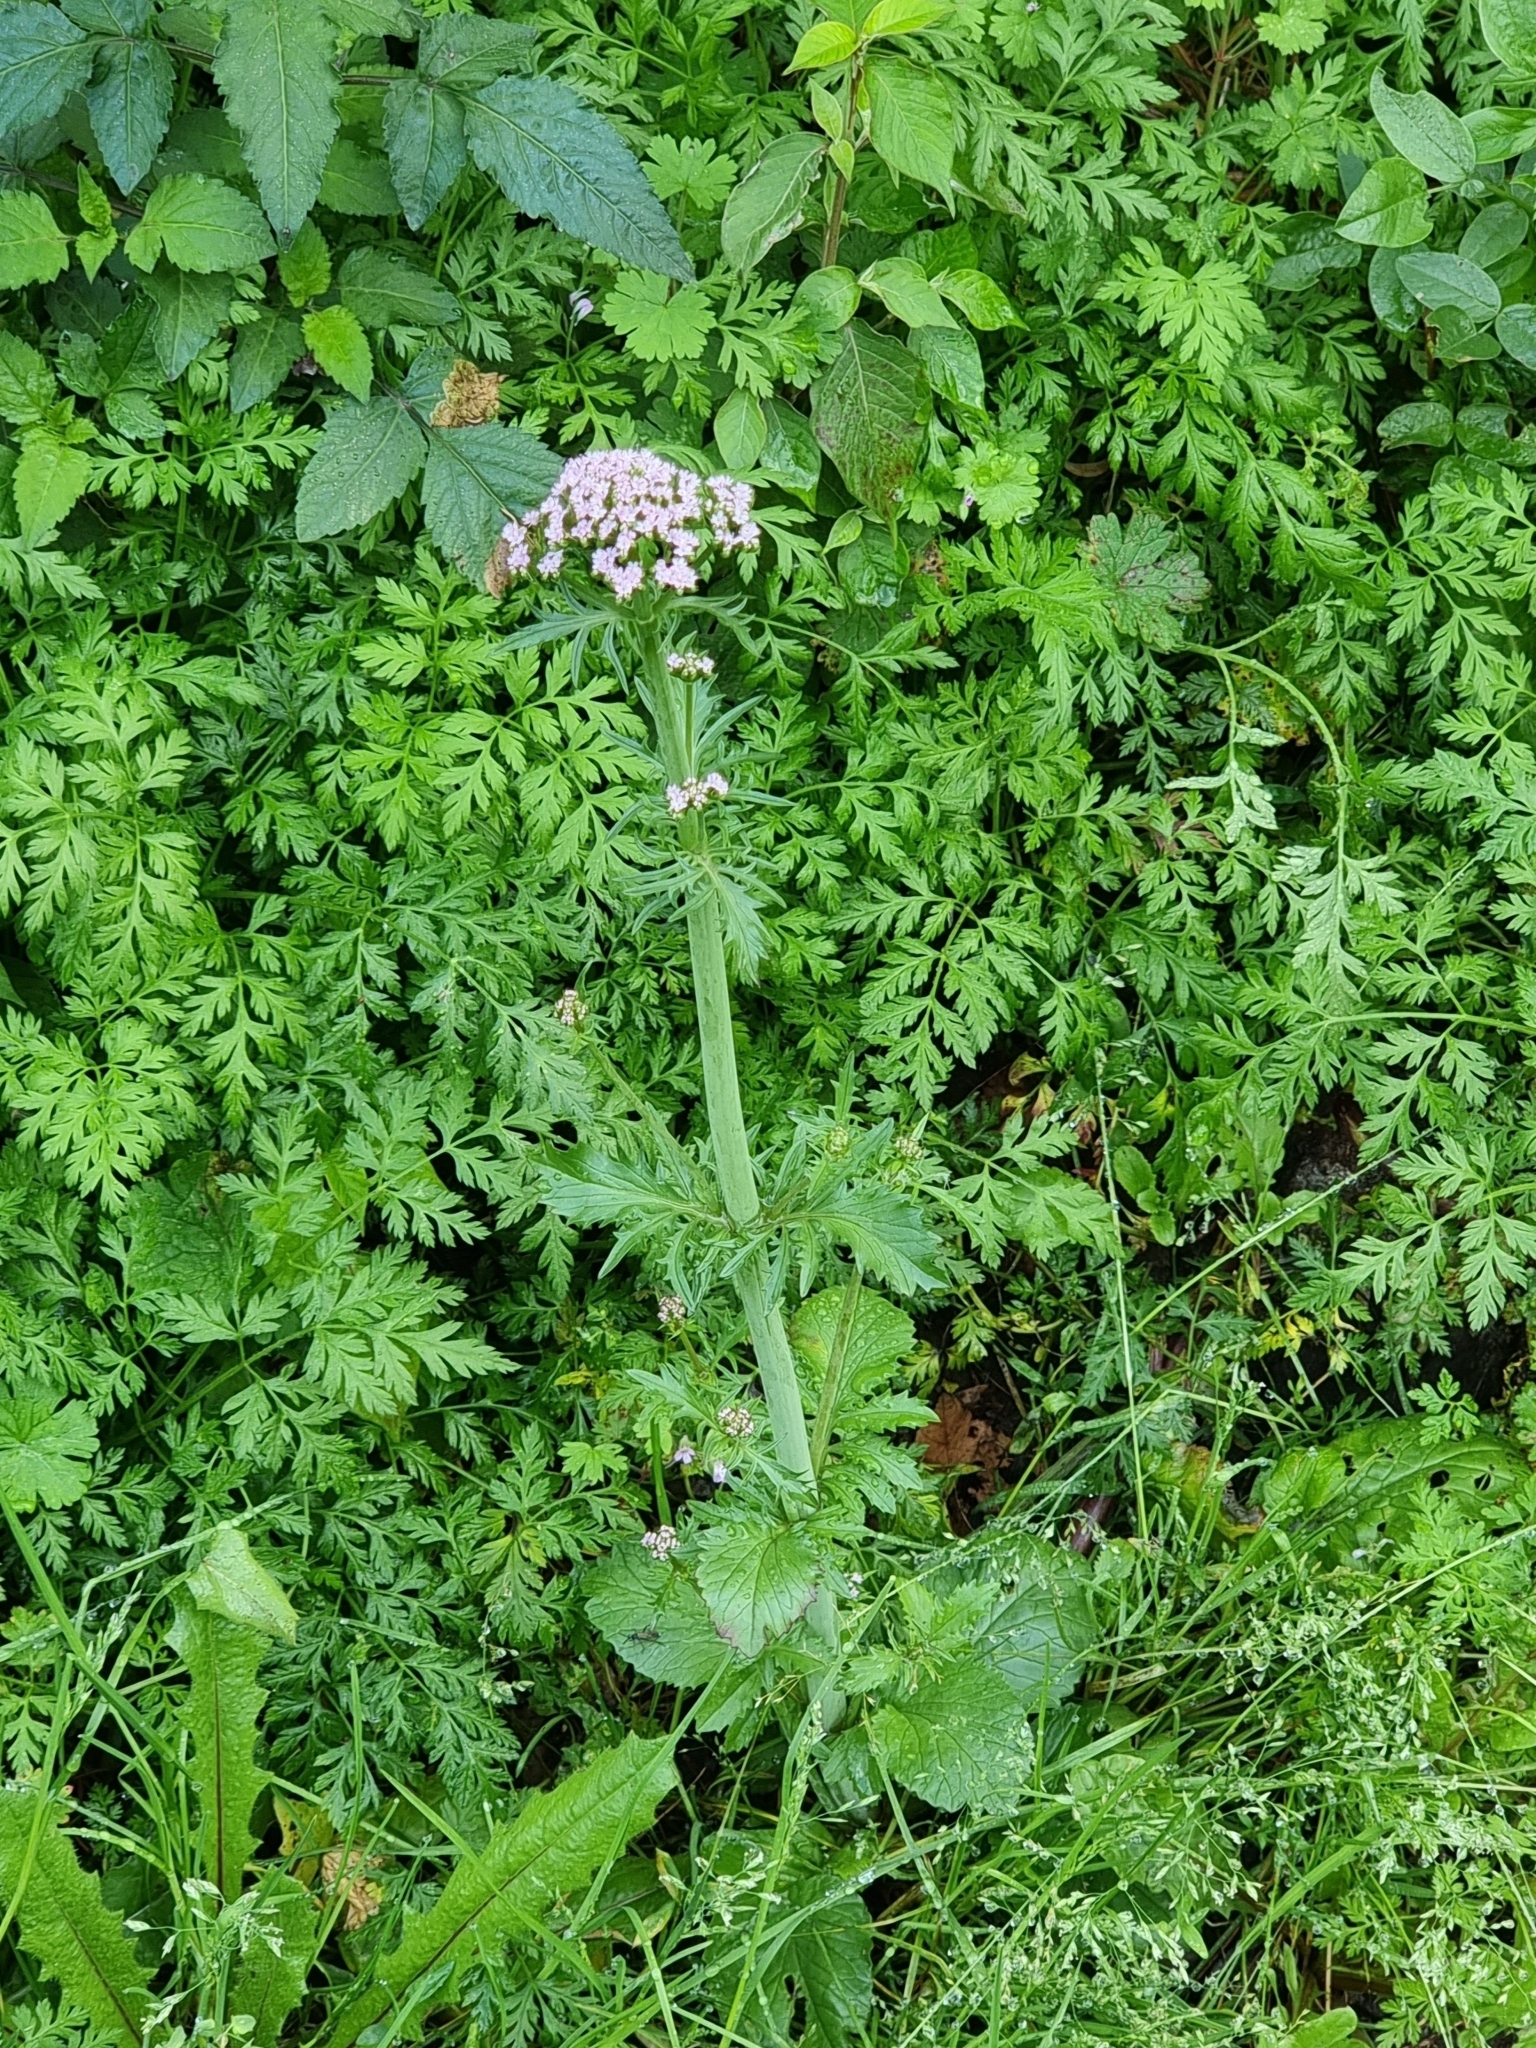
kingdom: Plantae
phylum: Tracheophyta
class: Magnoliopsida
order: Dipsacales
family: Caprifoliaceae
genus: Centranthus
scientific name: Centranthus calcitrapae
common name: Annual valerian
